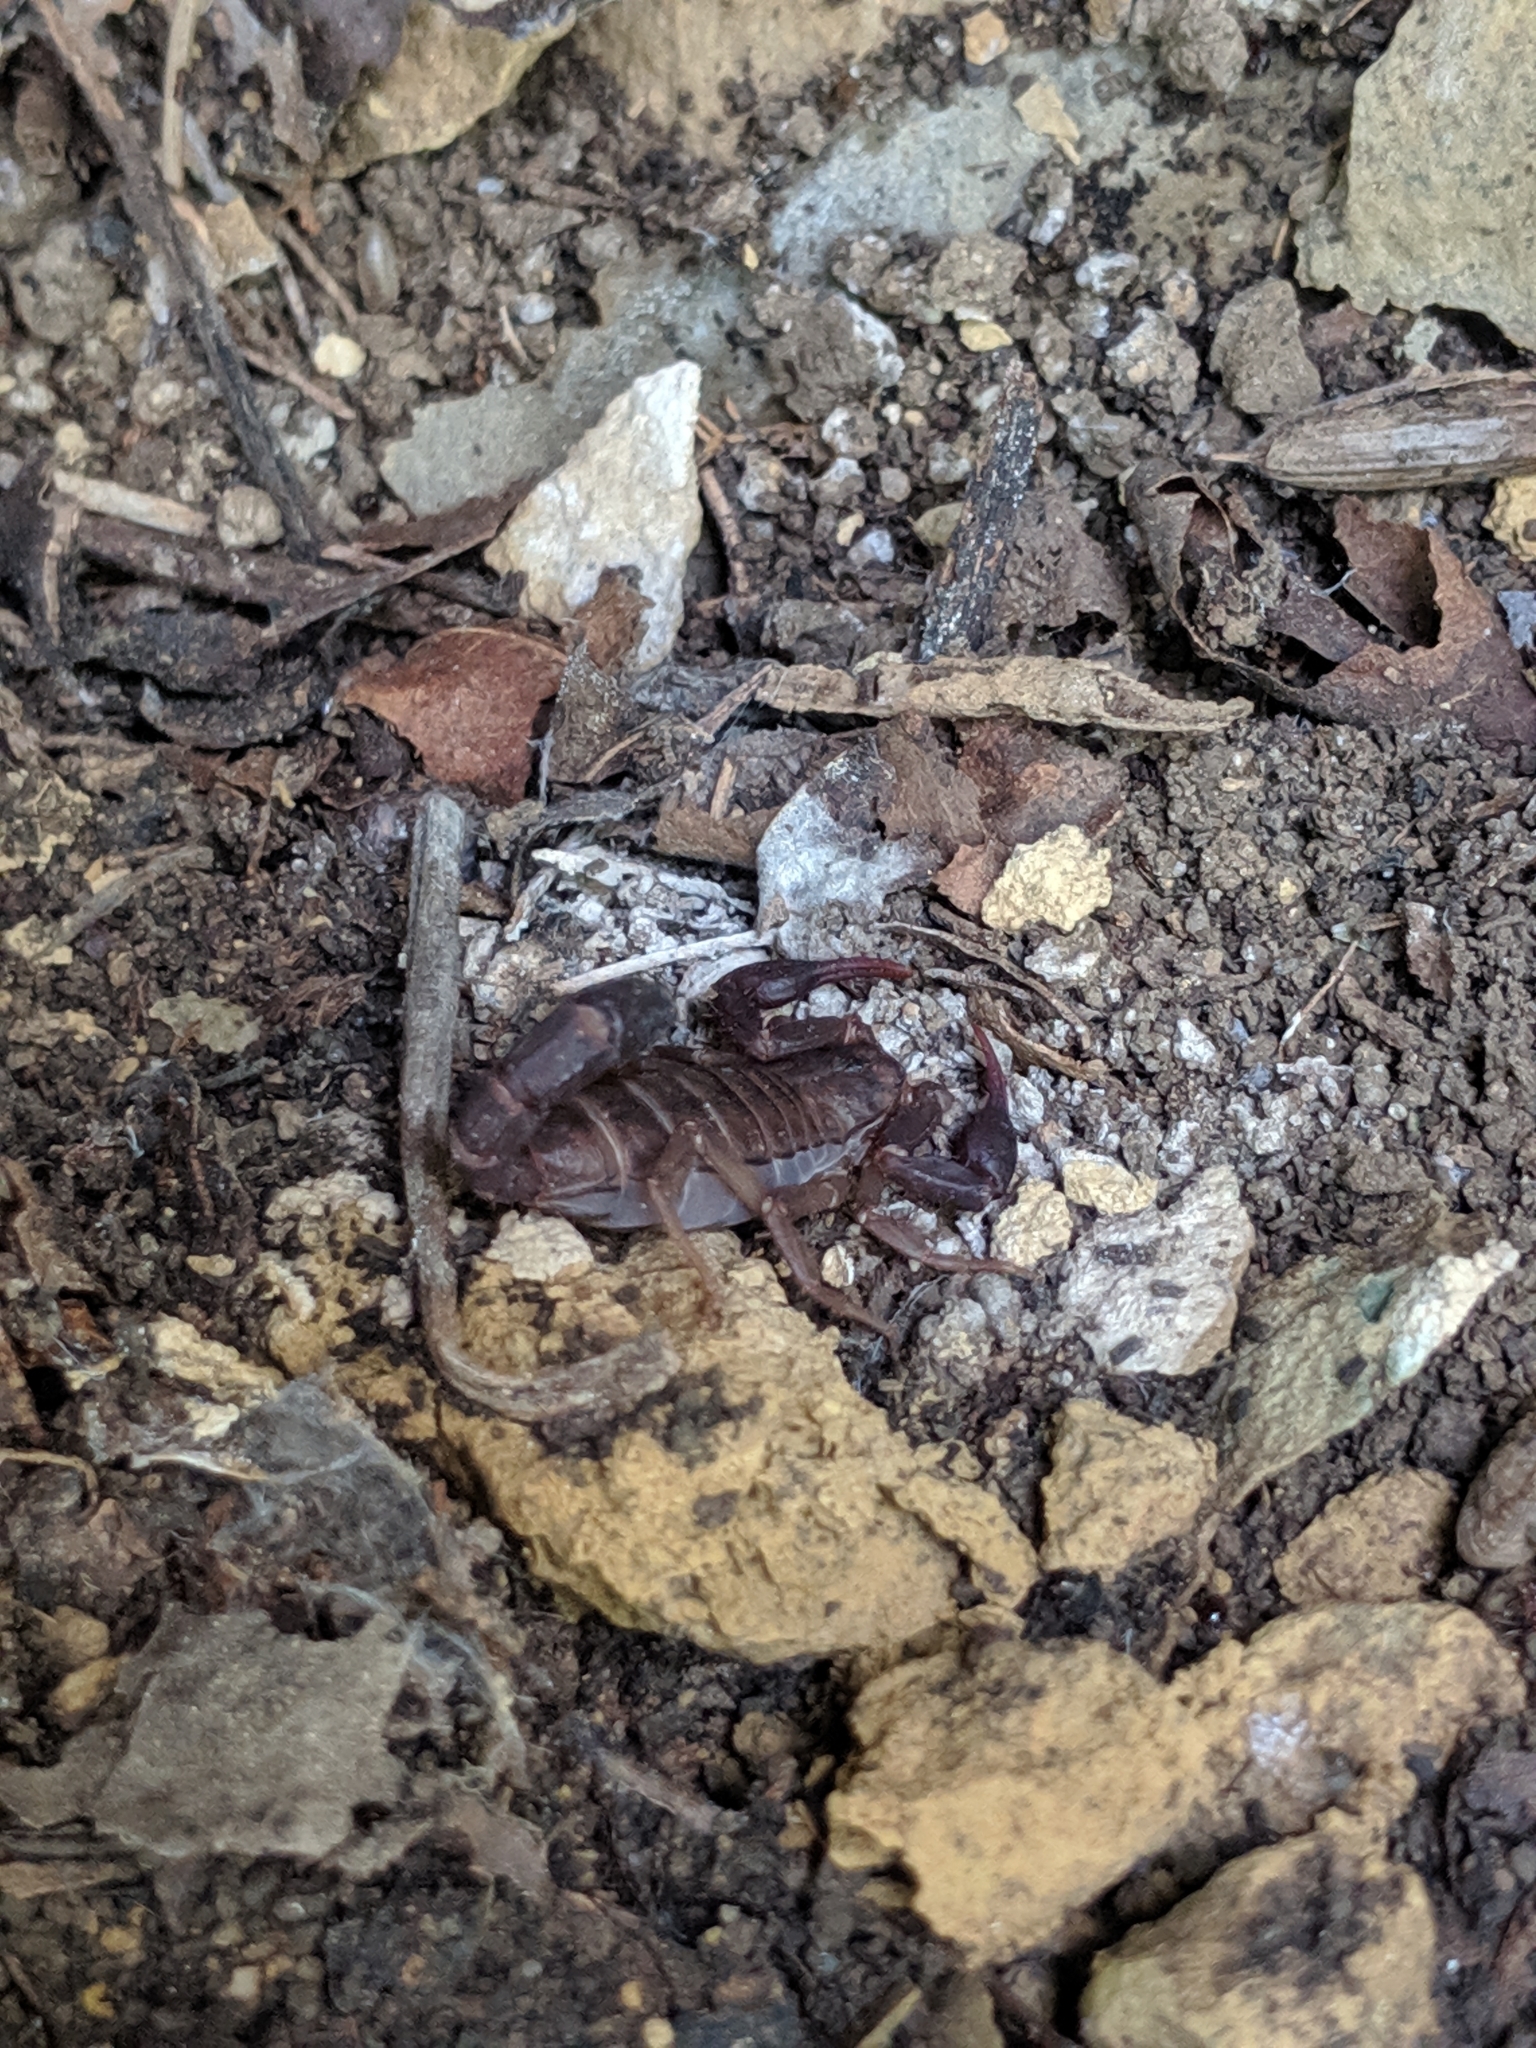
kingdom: Animalia
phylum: Arthropoda
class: Arachnida
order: Scorpiones
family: Vaejovidae
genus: Vaejovis
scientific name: Vaejovis carolinianus
